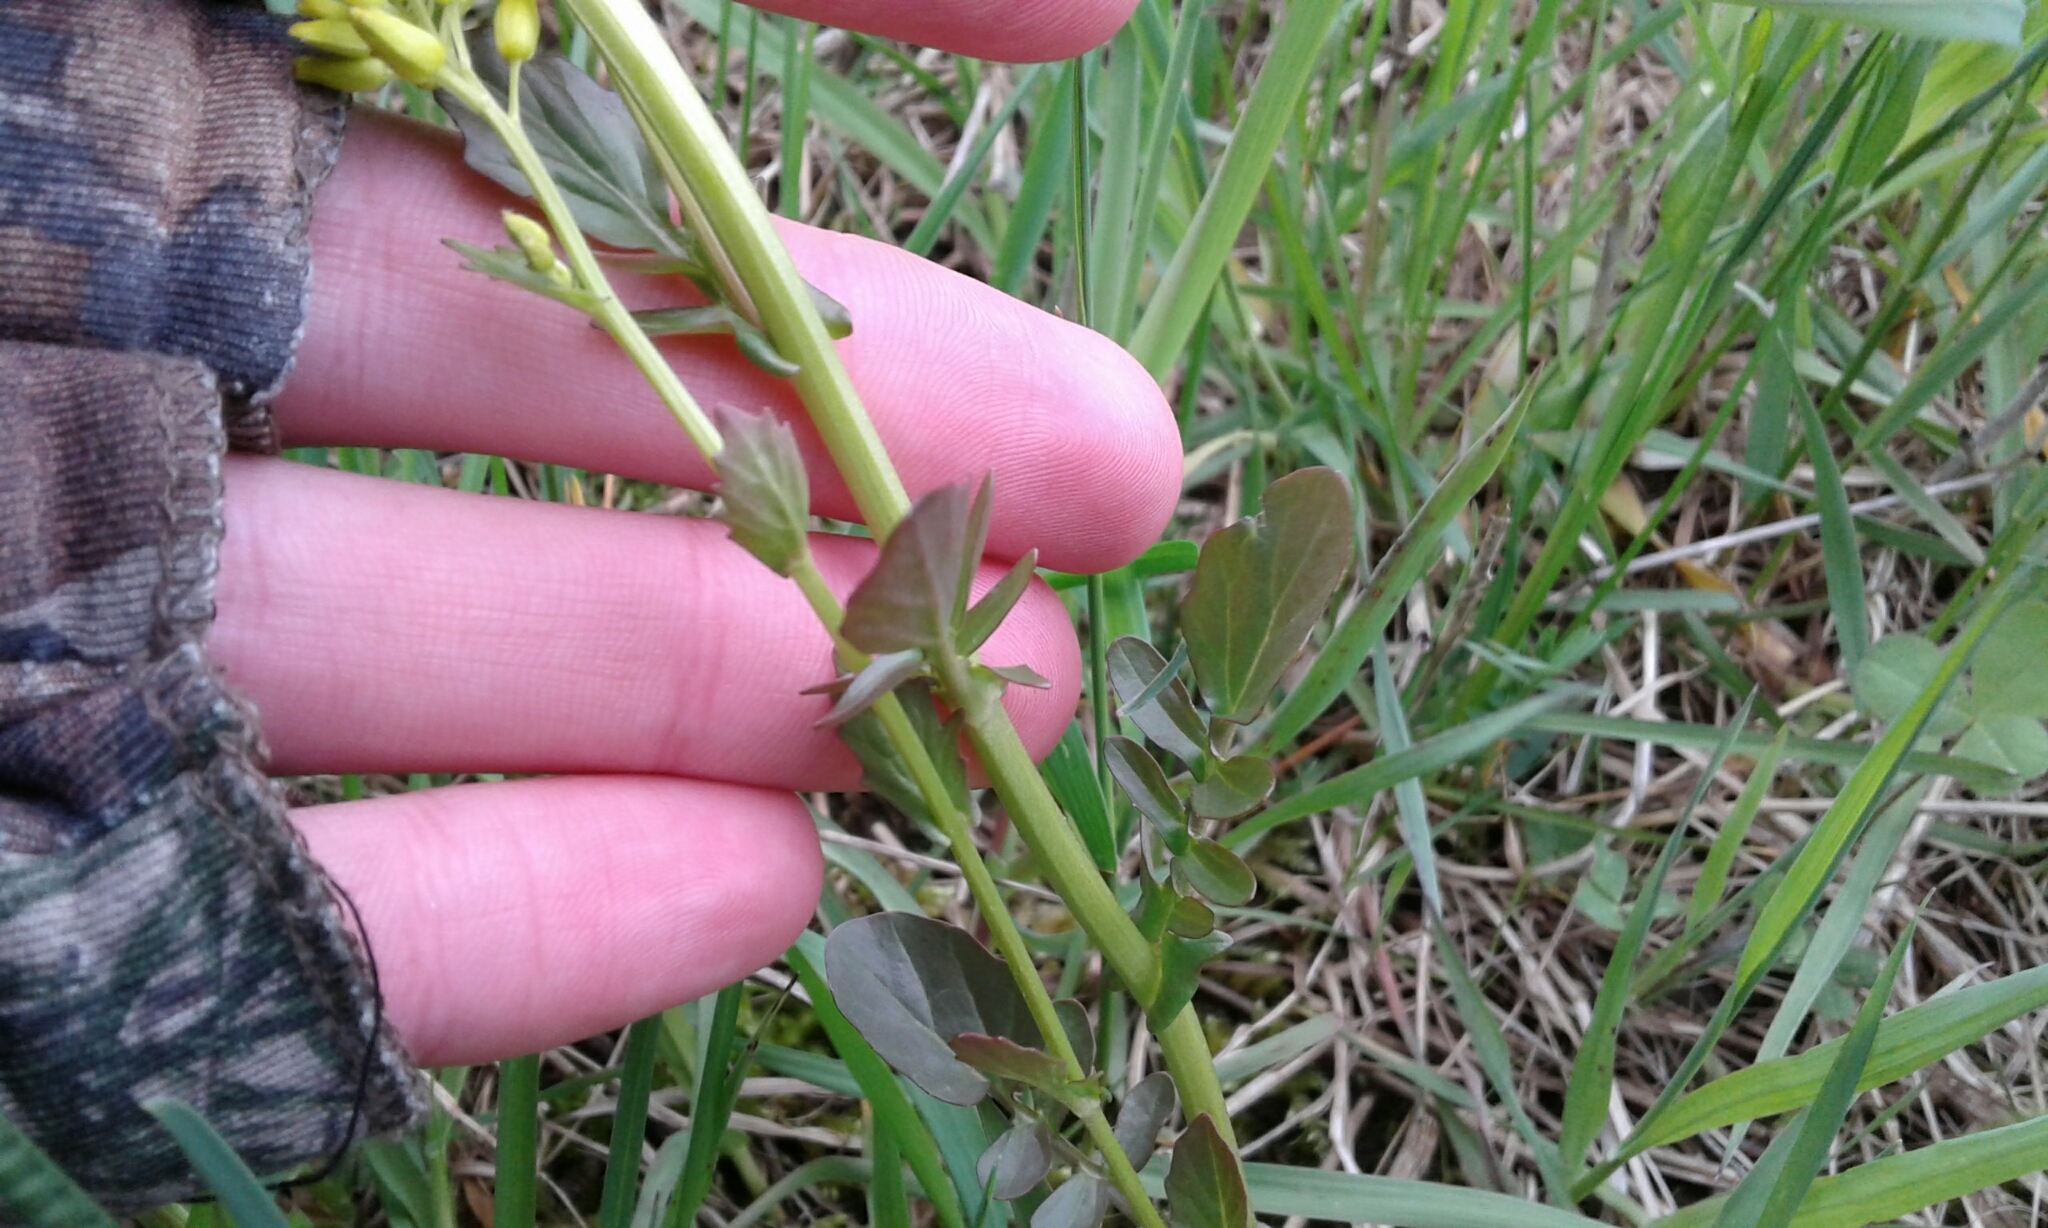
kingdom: Plantae
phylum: Tracheophyta
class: Magnoliopsida
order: Brassicales
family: Brassicaceae
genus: Barbarea
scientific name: Barbarea vulgaris
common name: Cressy-greens
